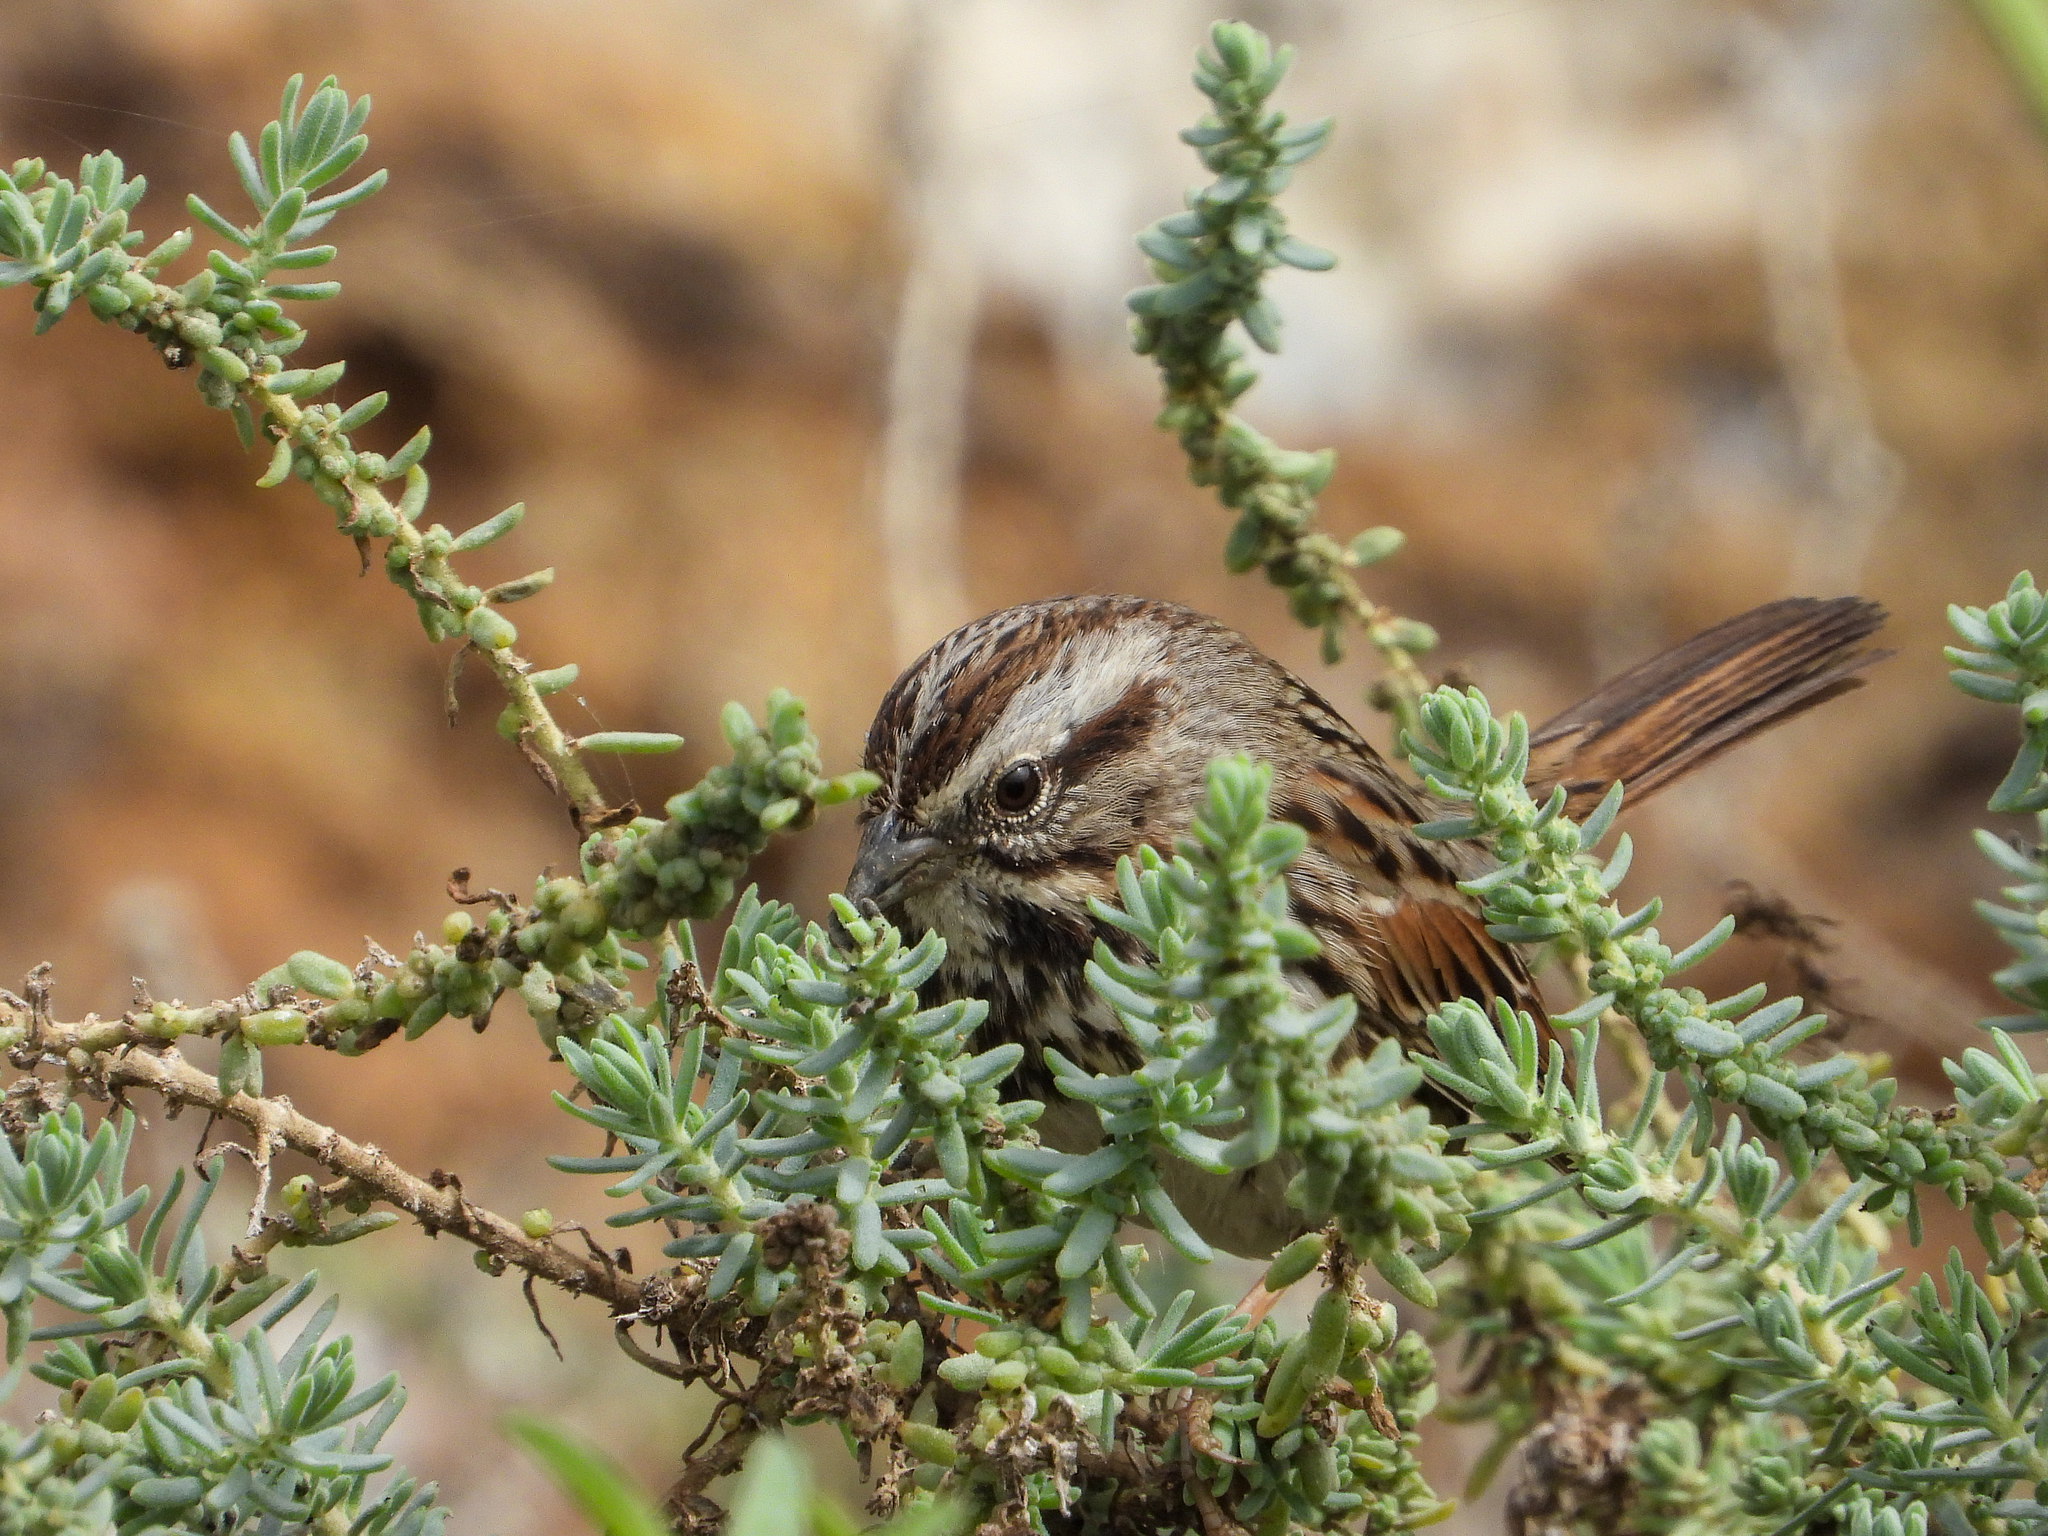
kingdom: Animalia
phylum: Chordata
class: Aves
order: Passeriformes
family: Passerellidae
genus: Melospiza
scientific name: Melospiza melodia
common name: Song sparrow
